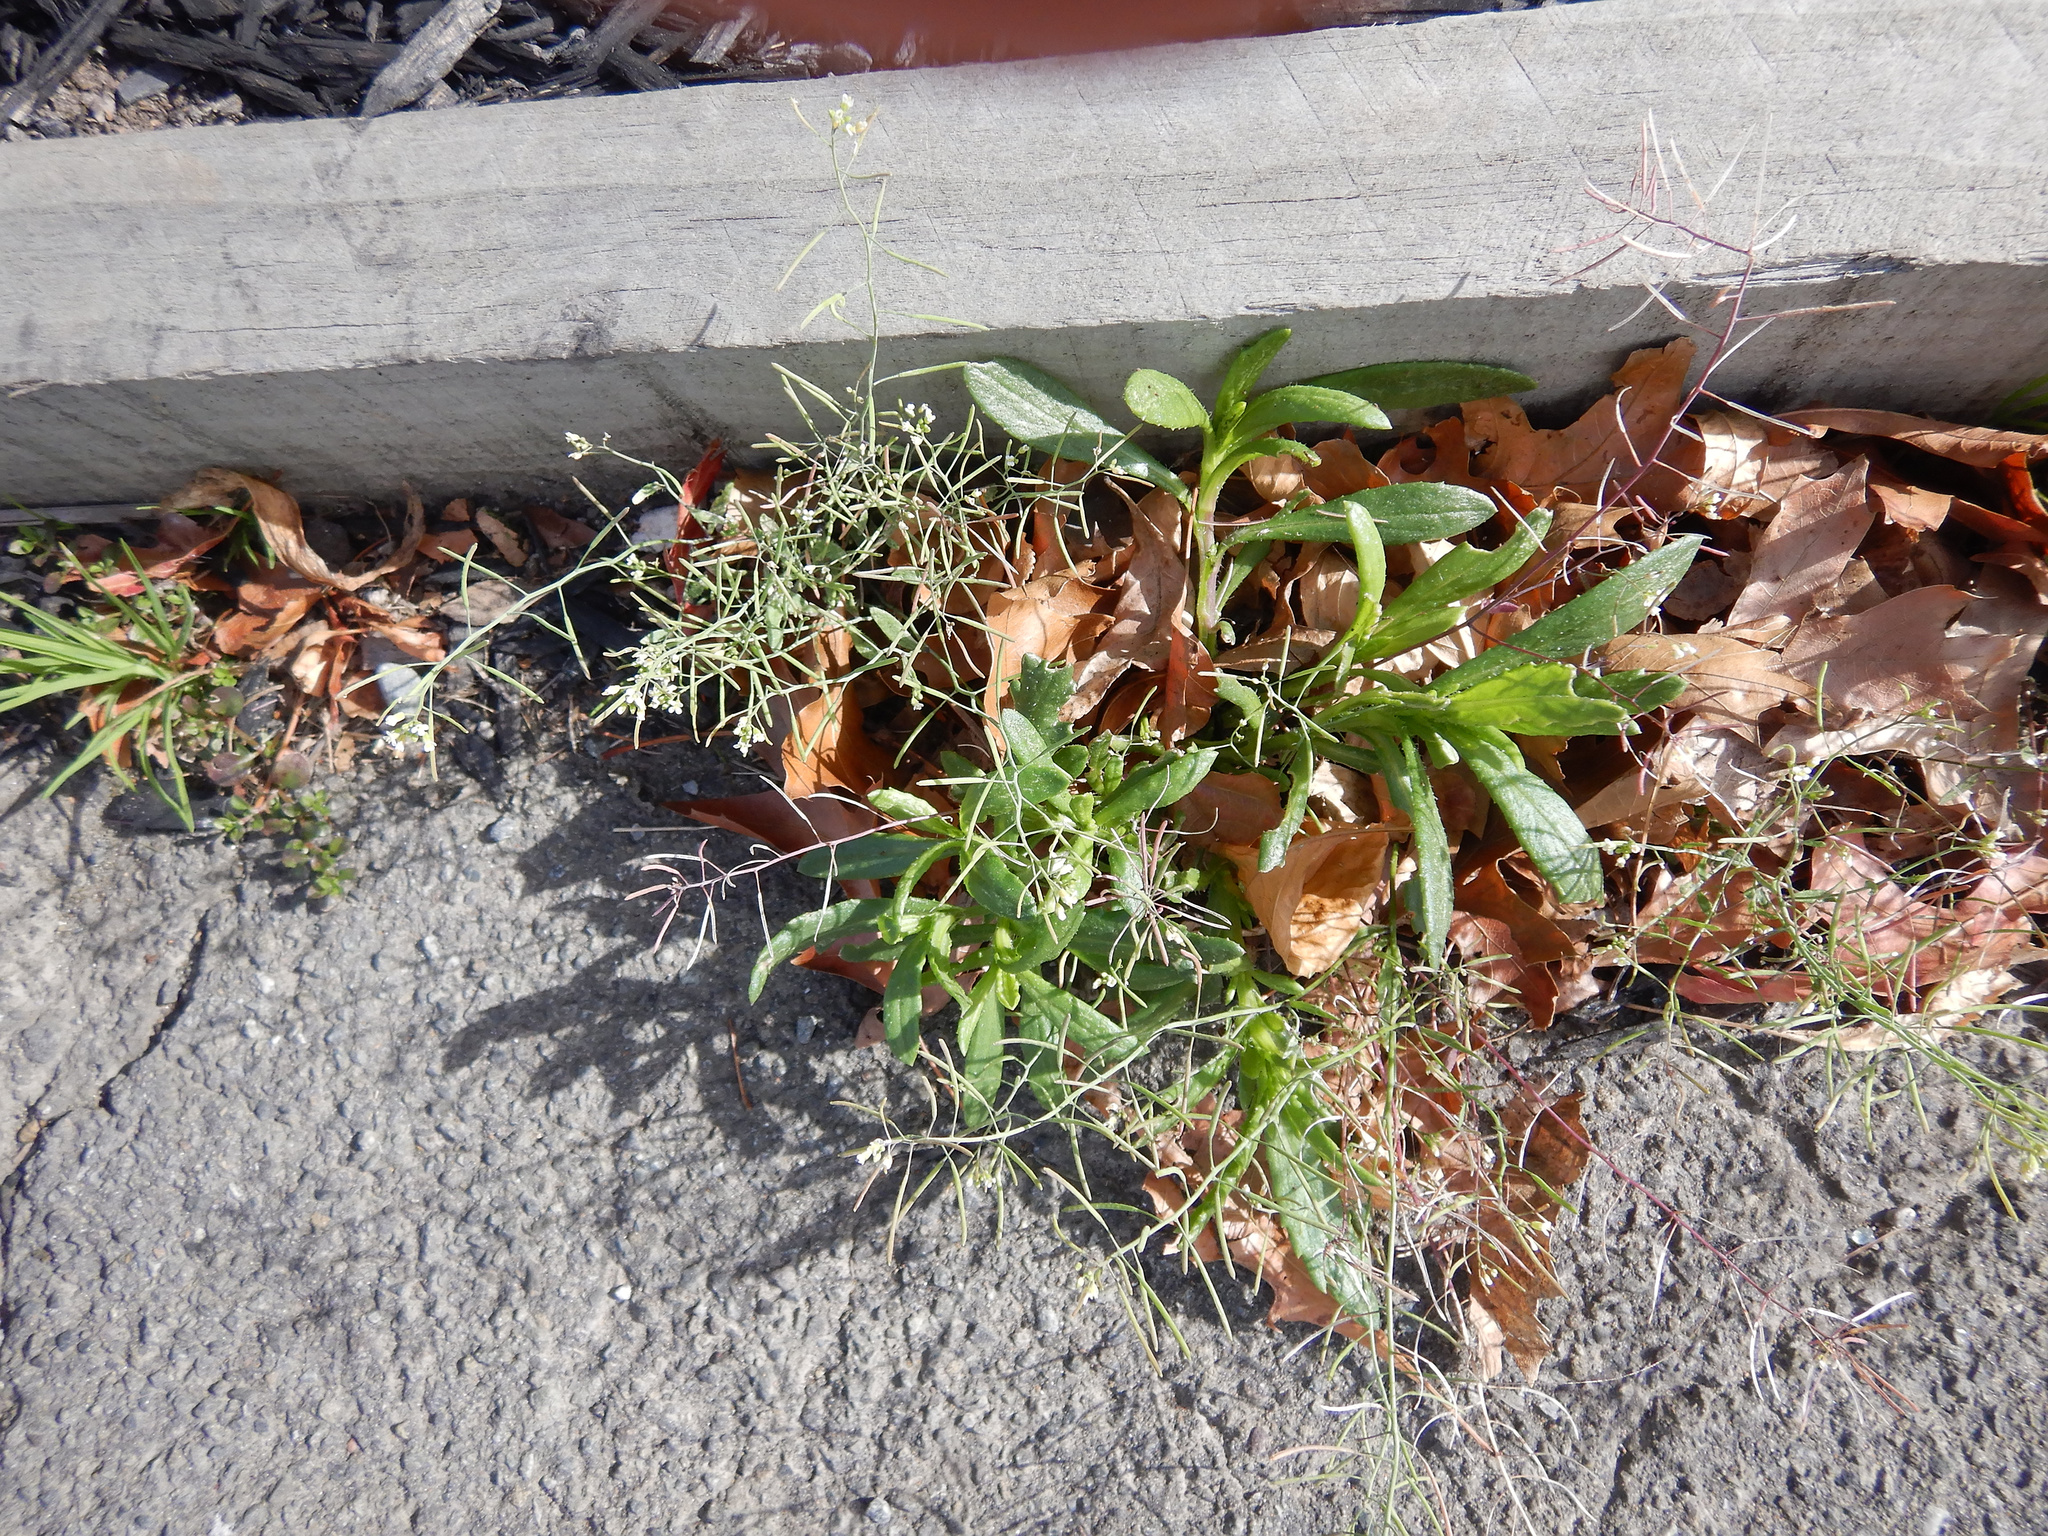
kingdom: Plantae
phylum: Tracheophyta
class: Magnoliopsida
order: Asterales
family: Asteraceae
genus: Senecio
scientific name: Senecio skirrhodon
